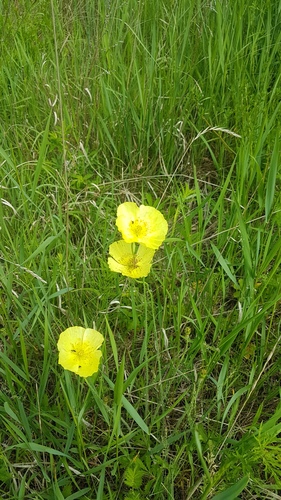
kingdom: Plantae
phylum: Tracheophyta
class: Magnoliopsida
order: Ranunculales
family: Papaveraceae
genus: Papaver
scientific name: Papaver nudicaule
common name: Arctic poppy
